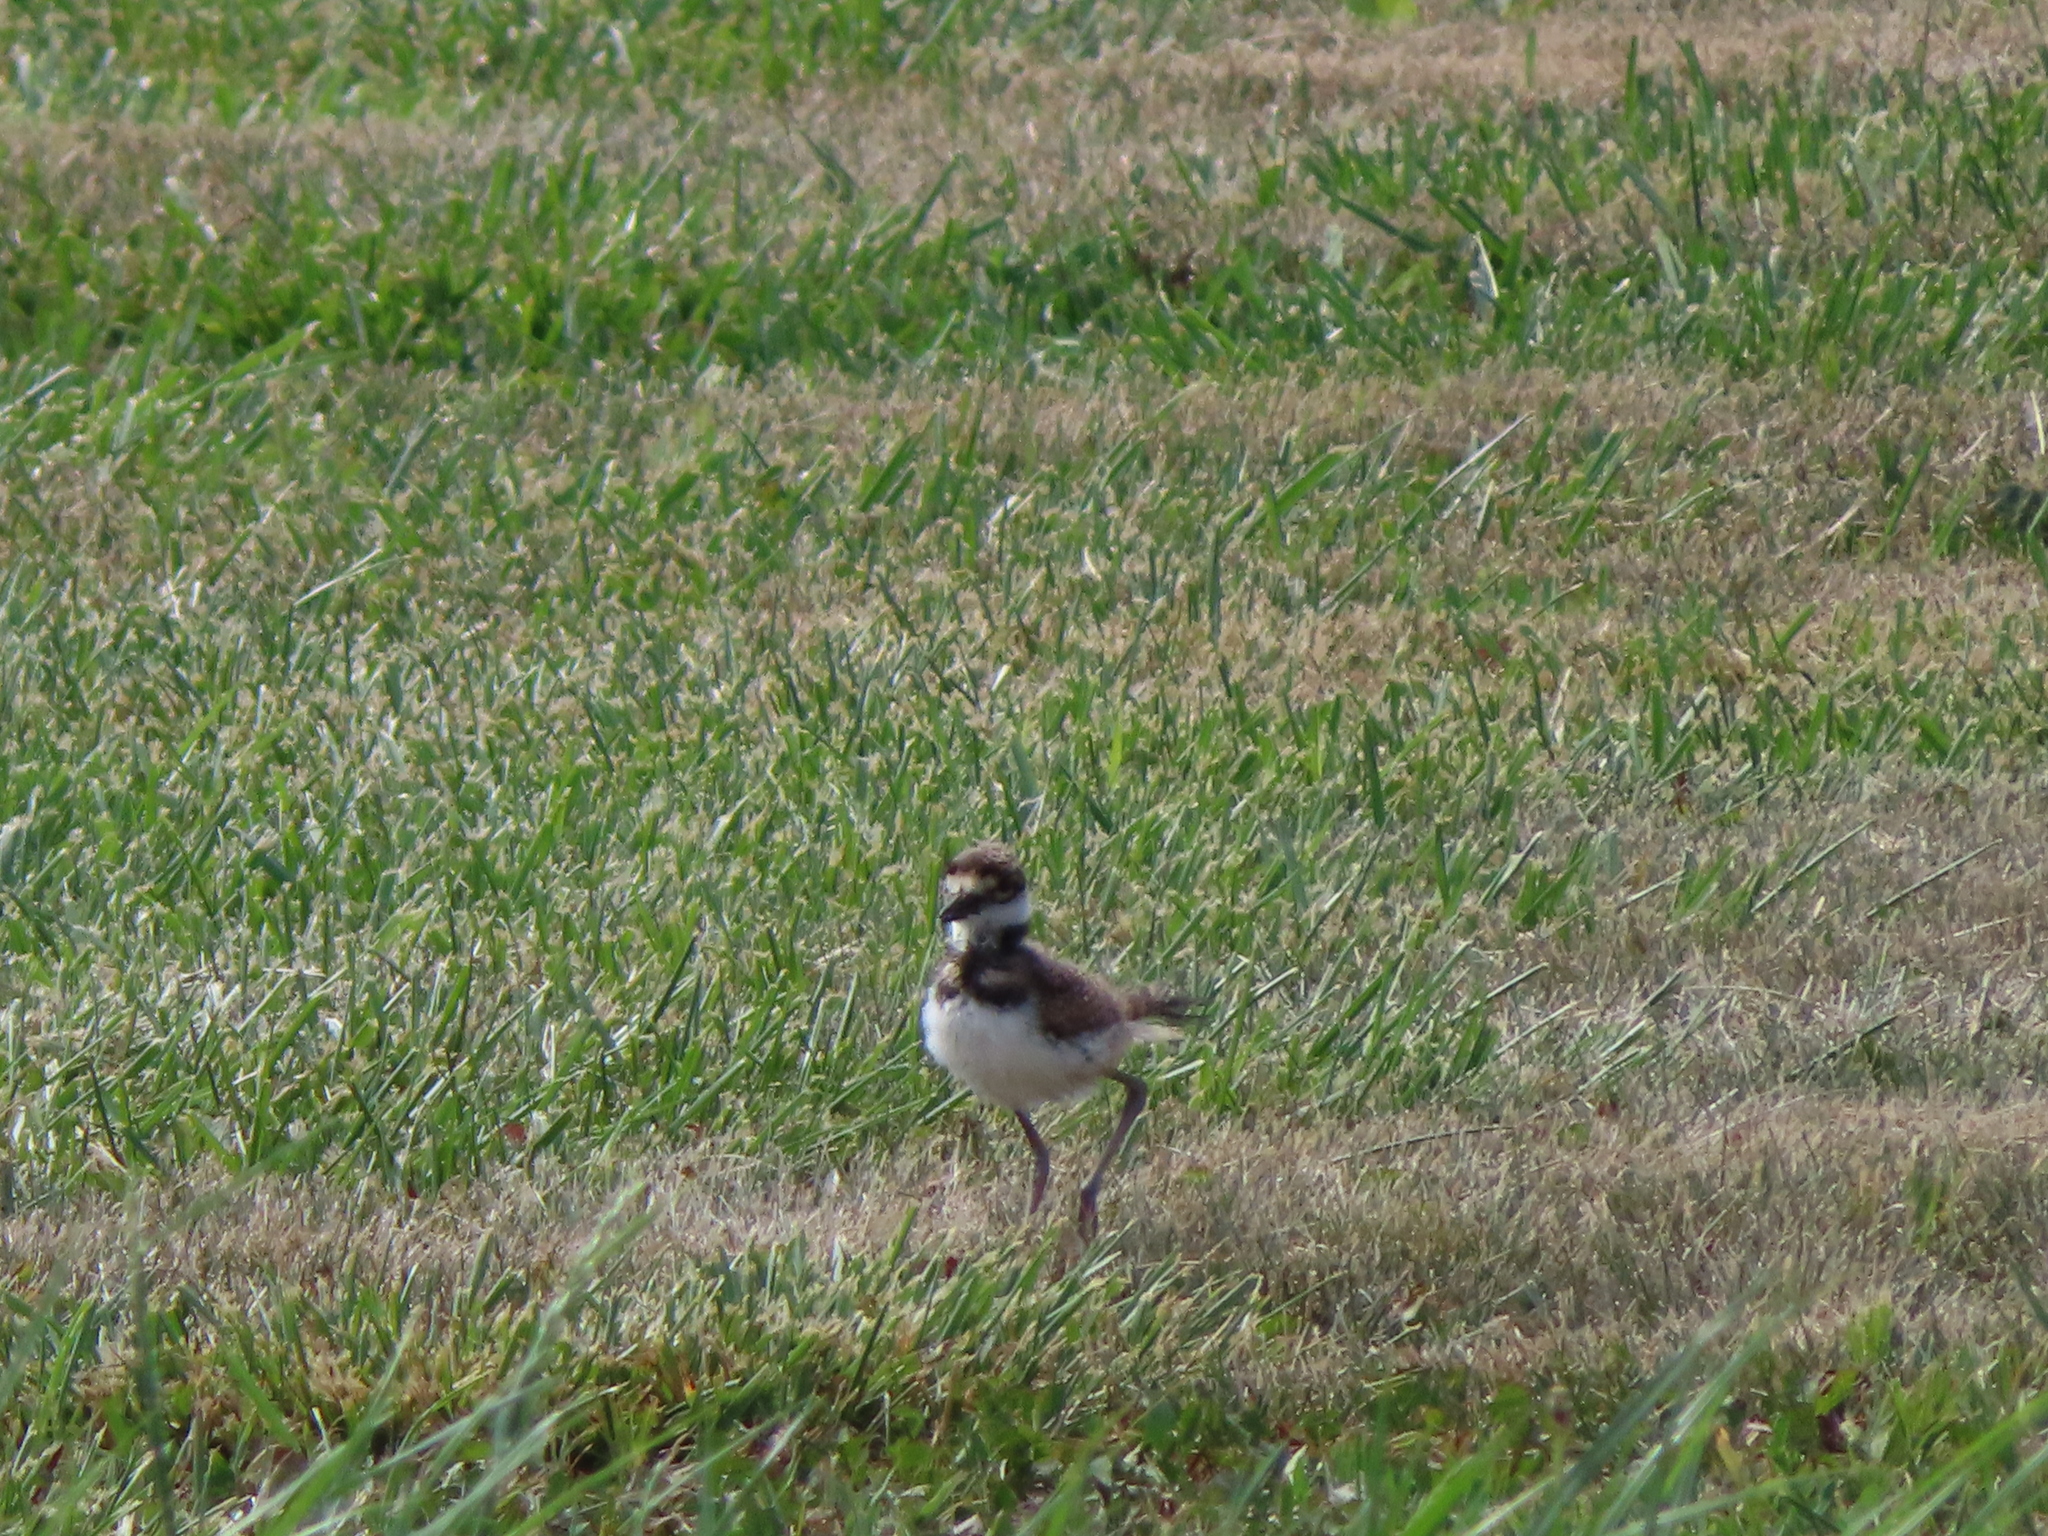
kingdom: Animalia
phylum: Chordata
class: Aves
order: Charadriiformes
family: Charadriidae
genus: Charadrius
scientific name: Charadrius vociferus
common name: Killdeer
